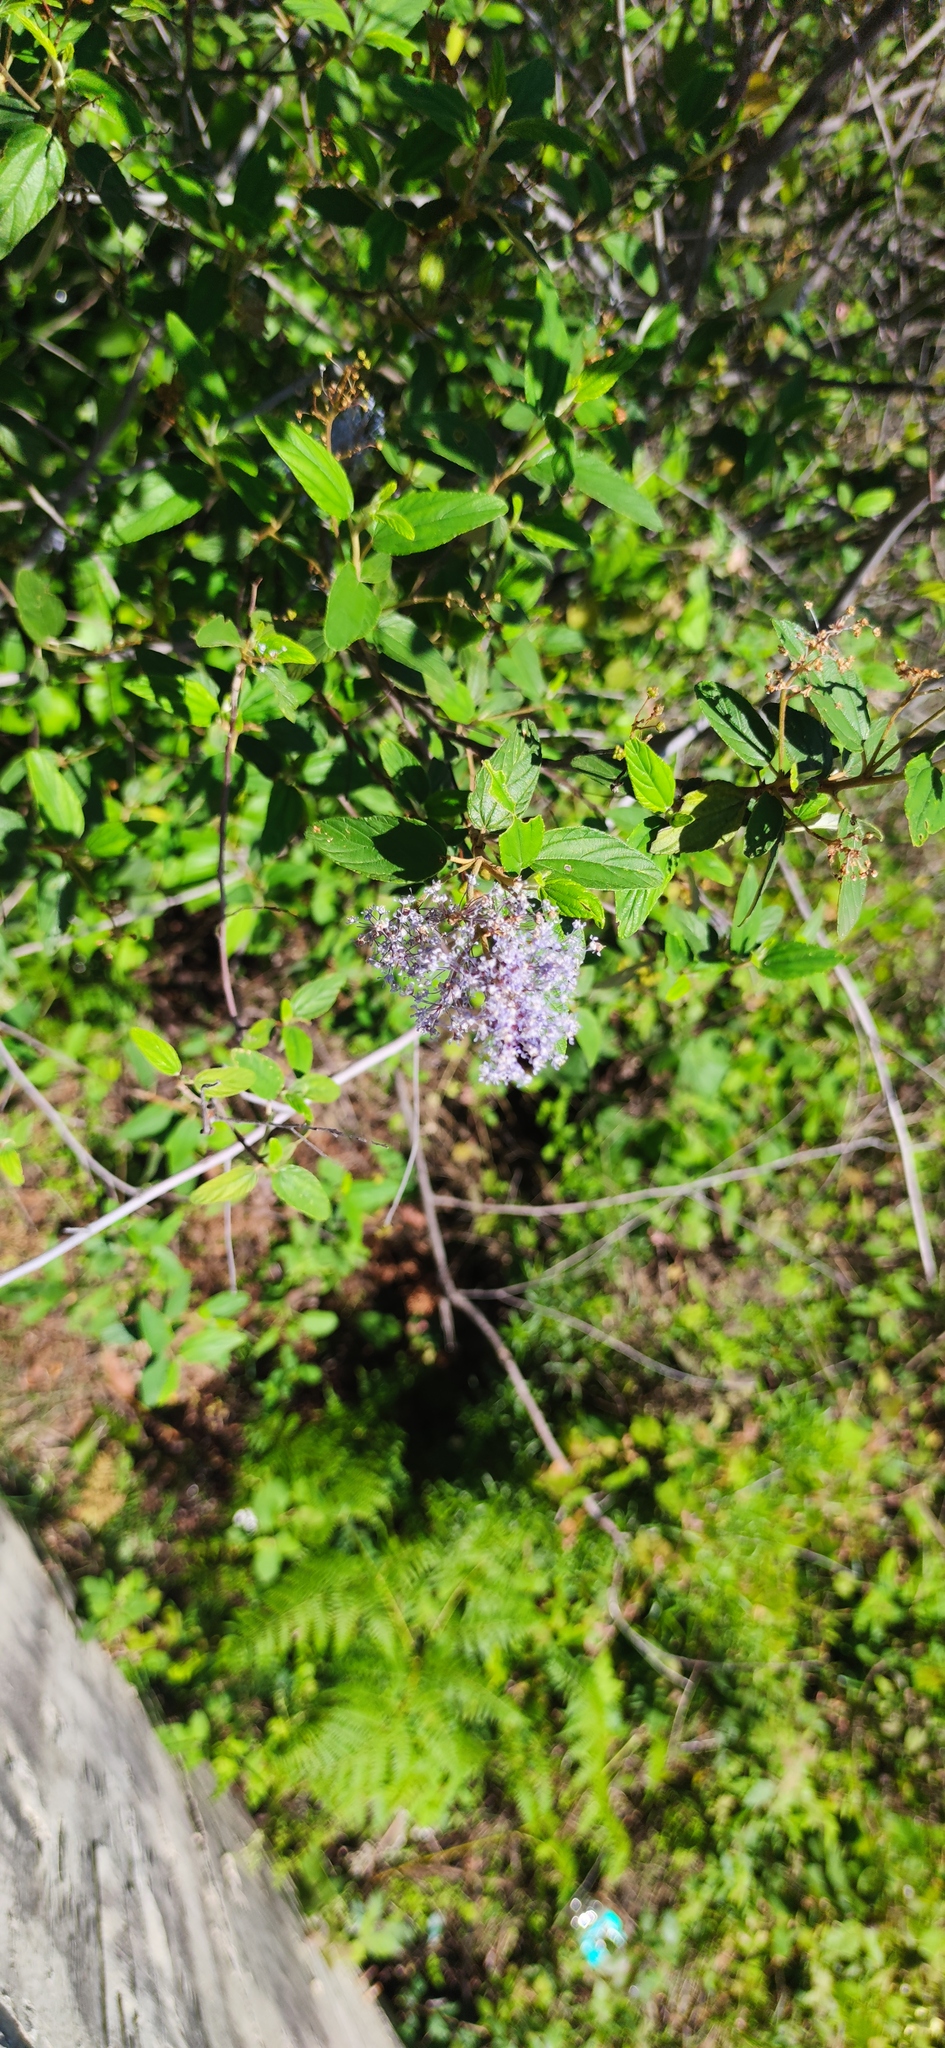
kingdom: Plantae
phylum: Tracheophyta
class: Magnoliopsida
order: Rosales
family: Rhamnaceae
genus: Ceanothus
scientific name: Ceanothus caeruleus
